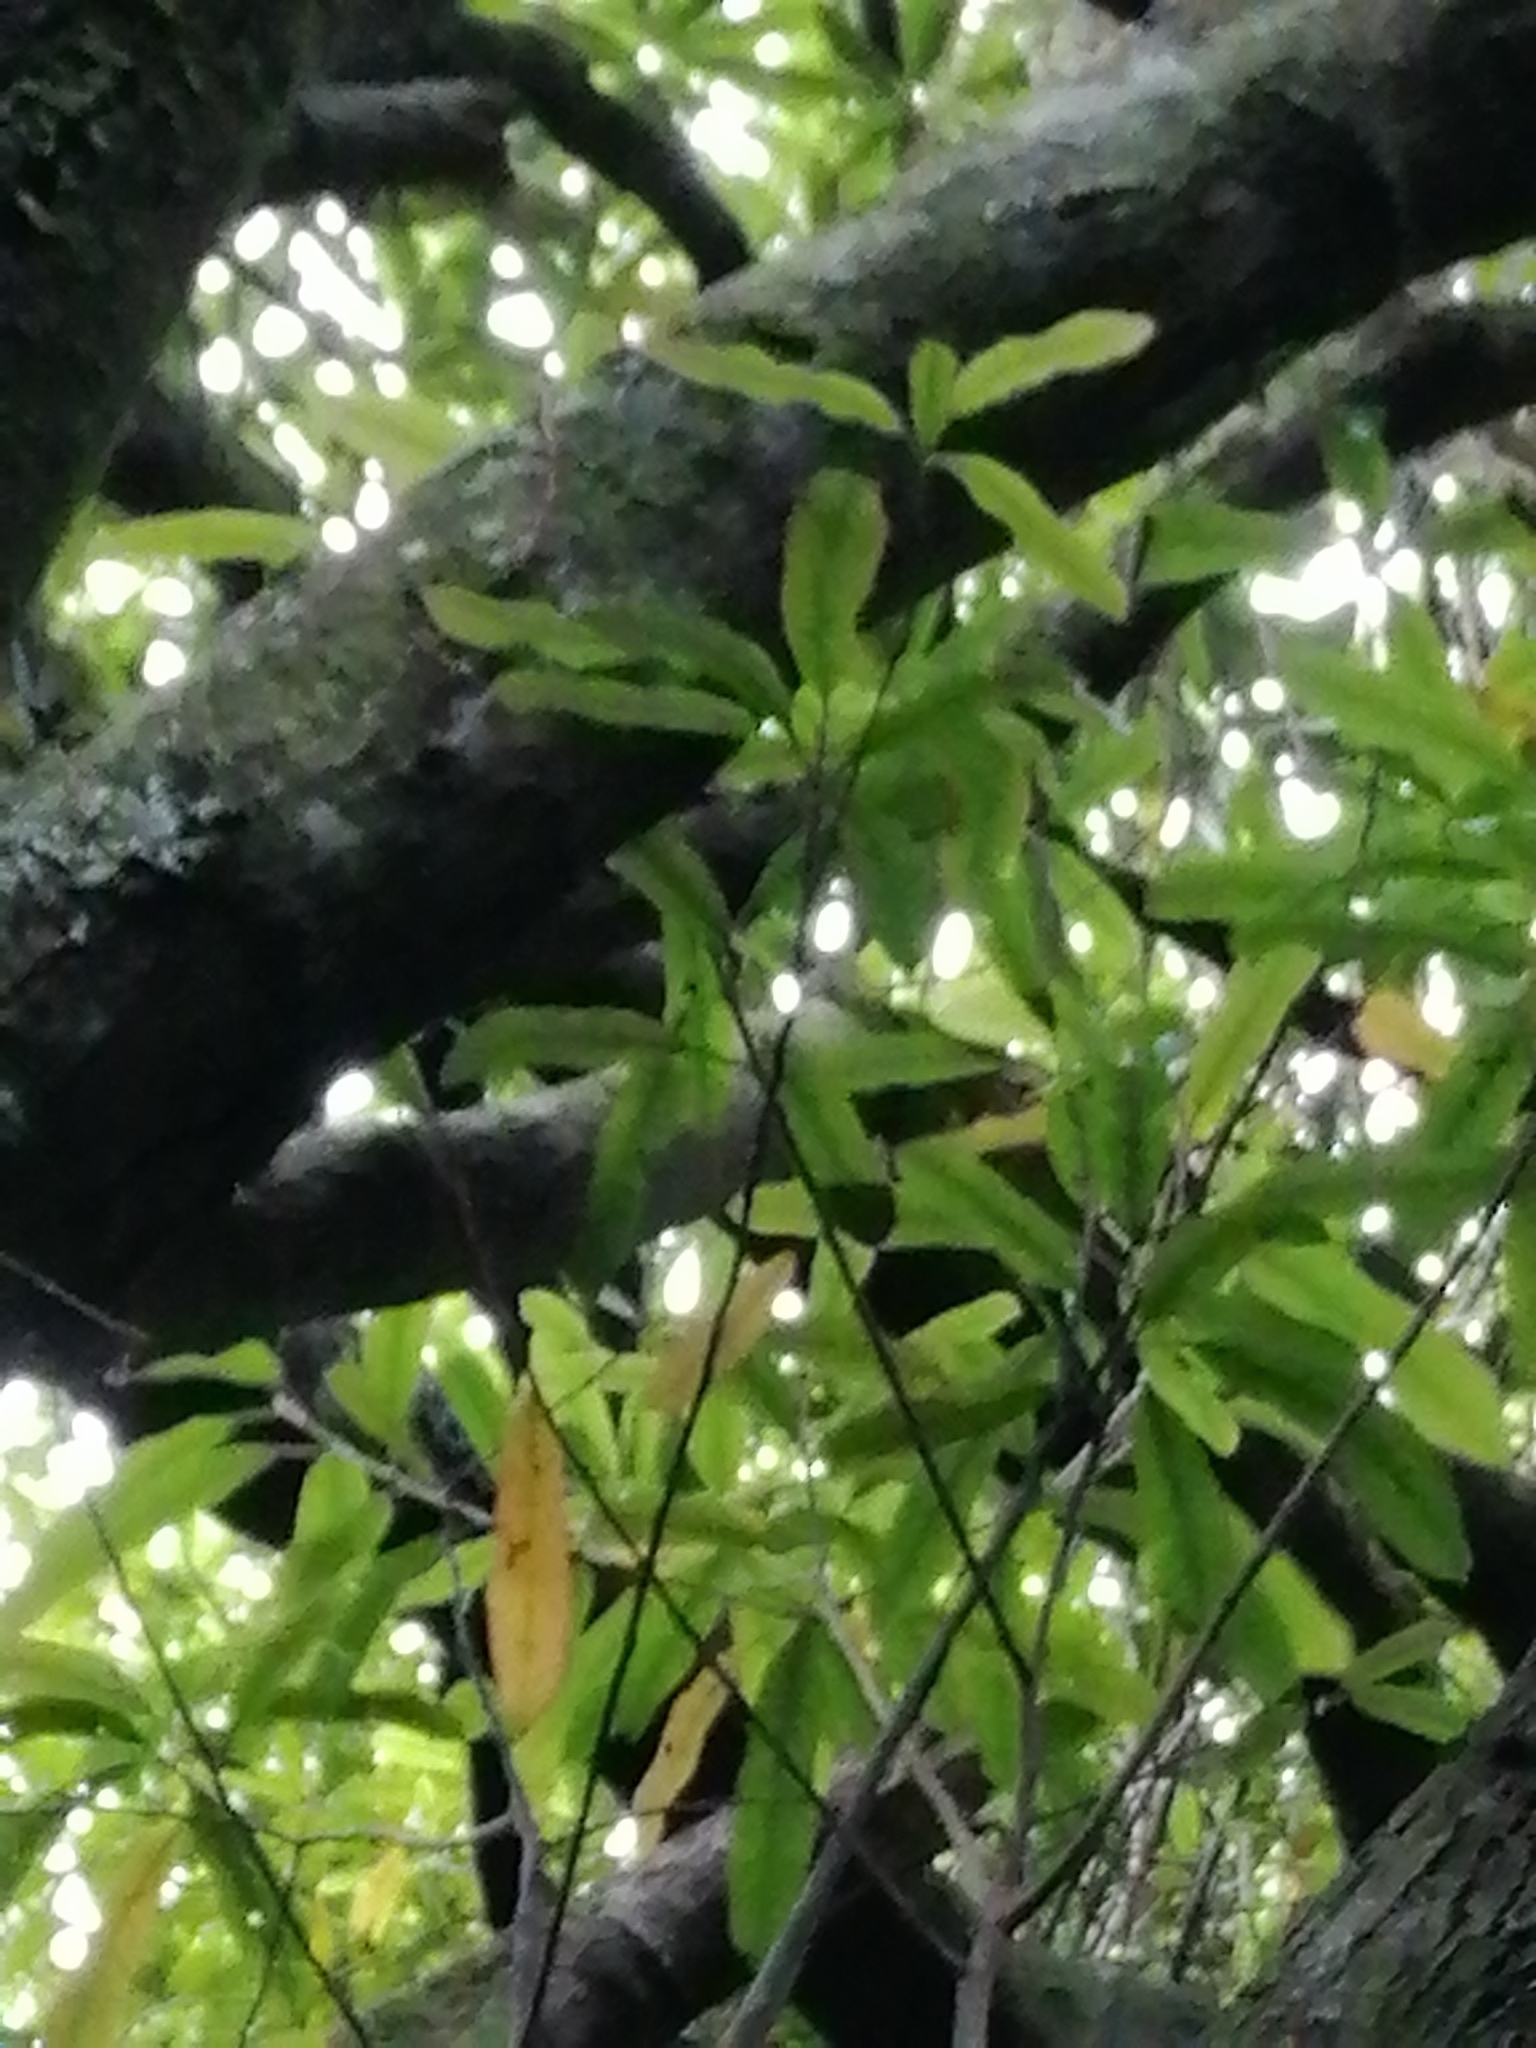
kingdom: Plantae
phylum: Tracheophyta
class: Magnoliopsida
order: Oxalidales
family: Elaeocarpaceae
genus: Elaeocarpus
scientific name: Elaeocarpus dentatus
